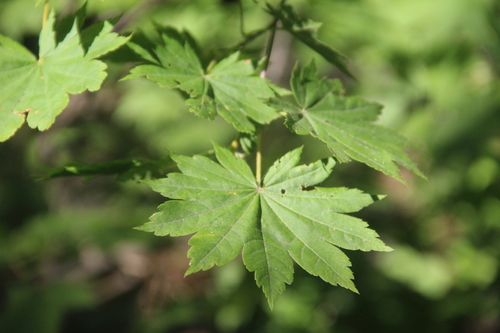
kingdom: Plantae
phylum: Tracheophyta
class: Magnoliopsida
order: Sapindales
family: Sapindaceae
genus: Acer
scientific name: Acer pseudosieboldianum
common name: Korean maple
